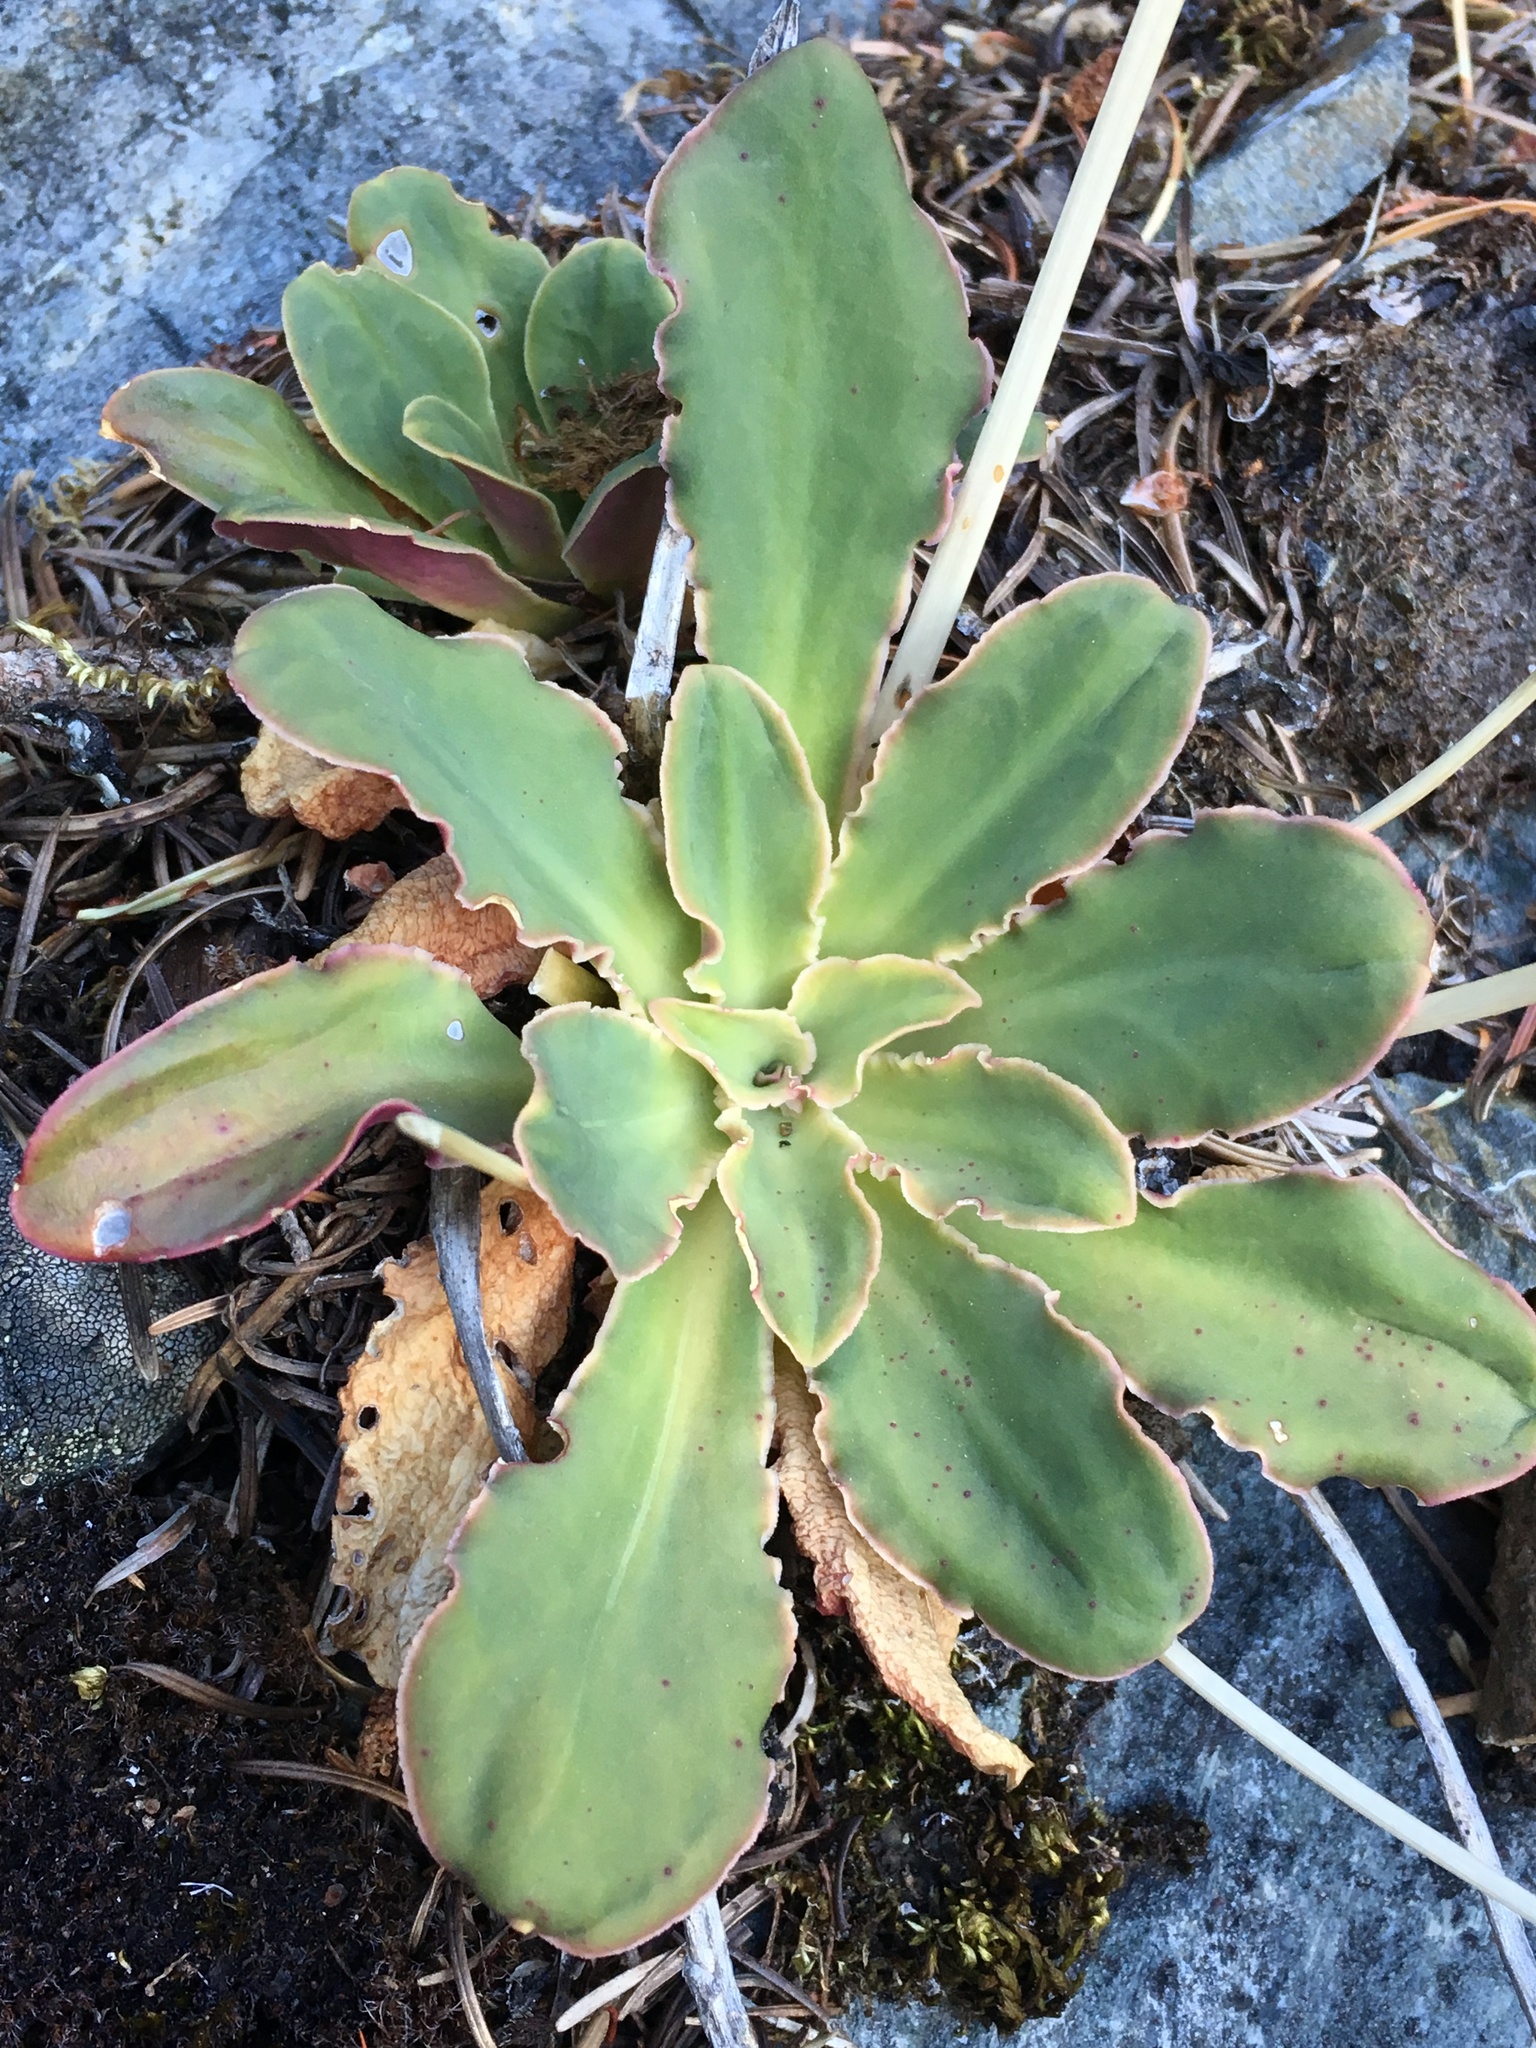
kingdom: Plantae
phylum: Tracheophyta
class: Magnoliopsida
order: Caryophyllales
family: Montiaceae
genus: Lewisia
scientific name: Lewisia cotyledon
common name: Siskiyou lewisia
